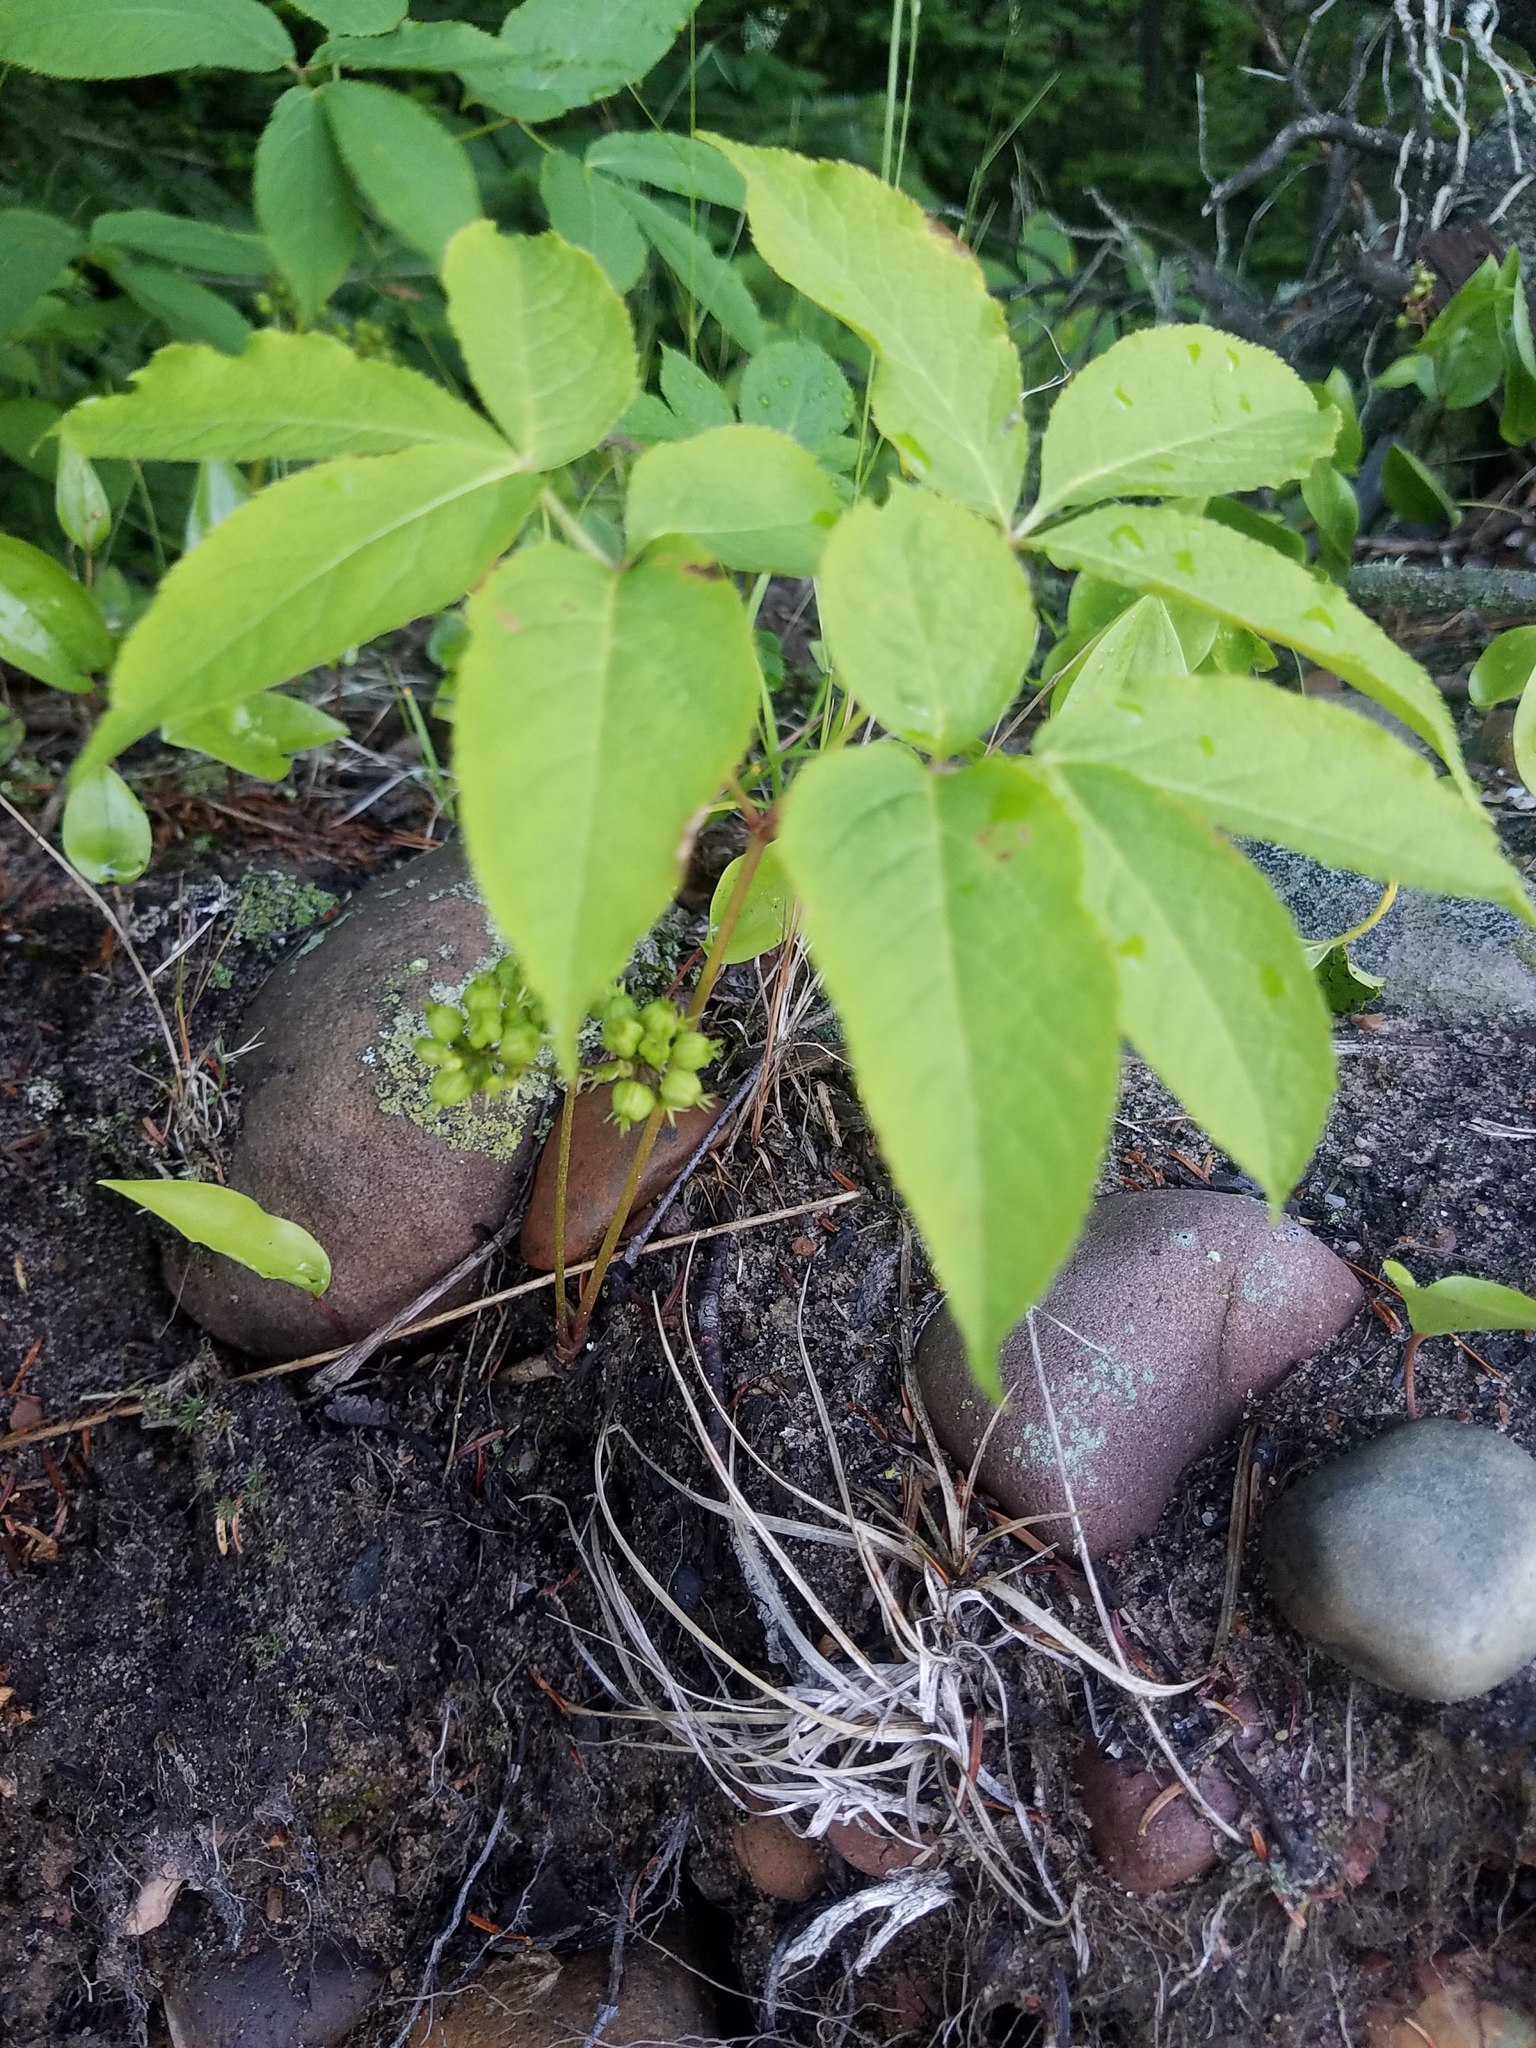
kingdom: Plantae
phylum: Tracheophyta
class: Magnoliopsida
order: Apiales
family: Araliaceae
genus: Aralia
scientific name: Aralia nudicaulis
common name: Wild sarsaparilla
